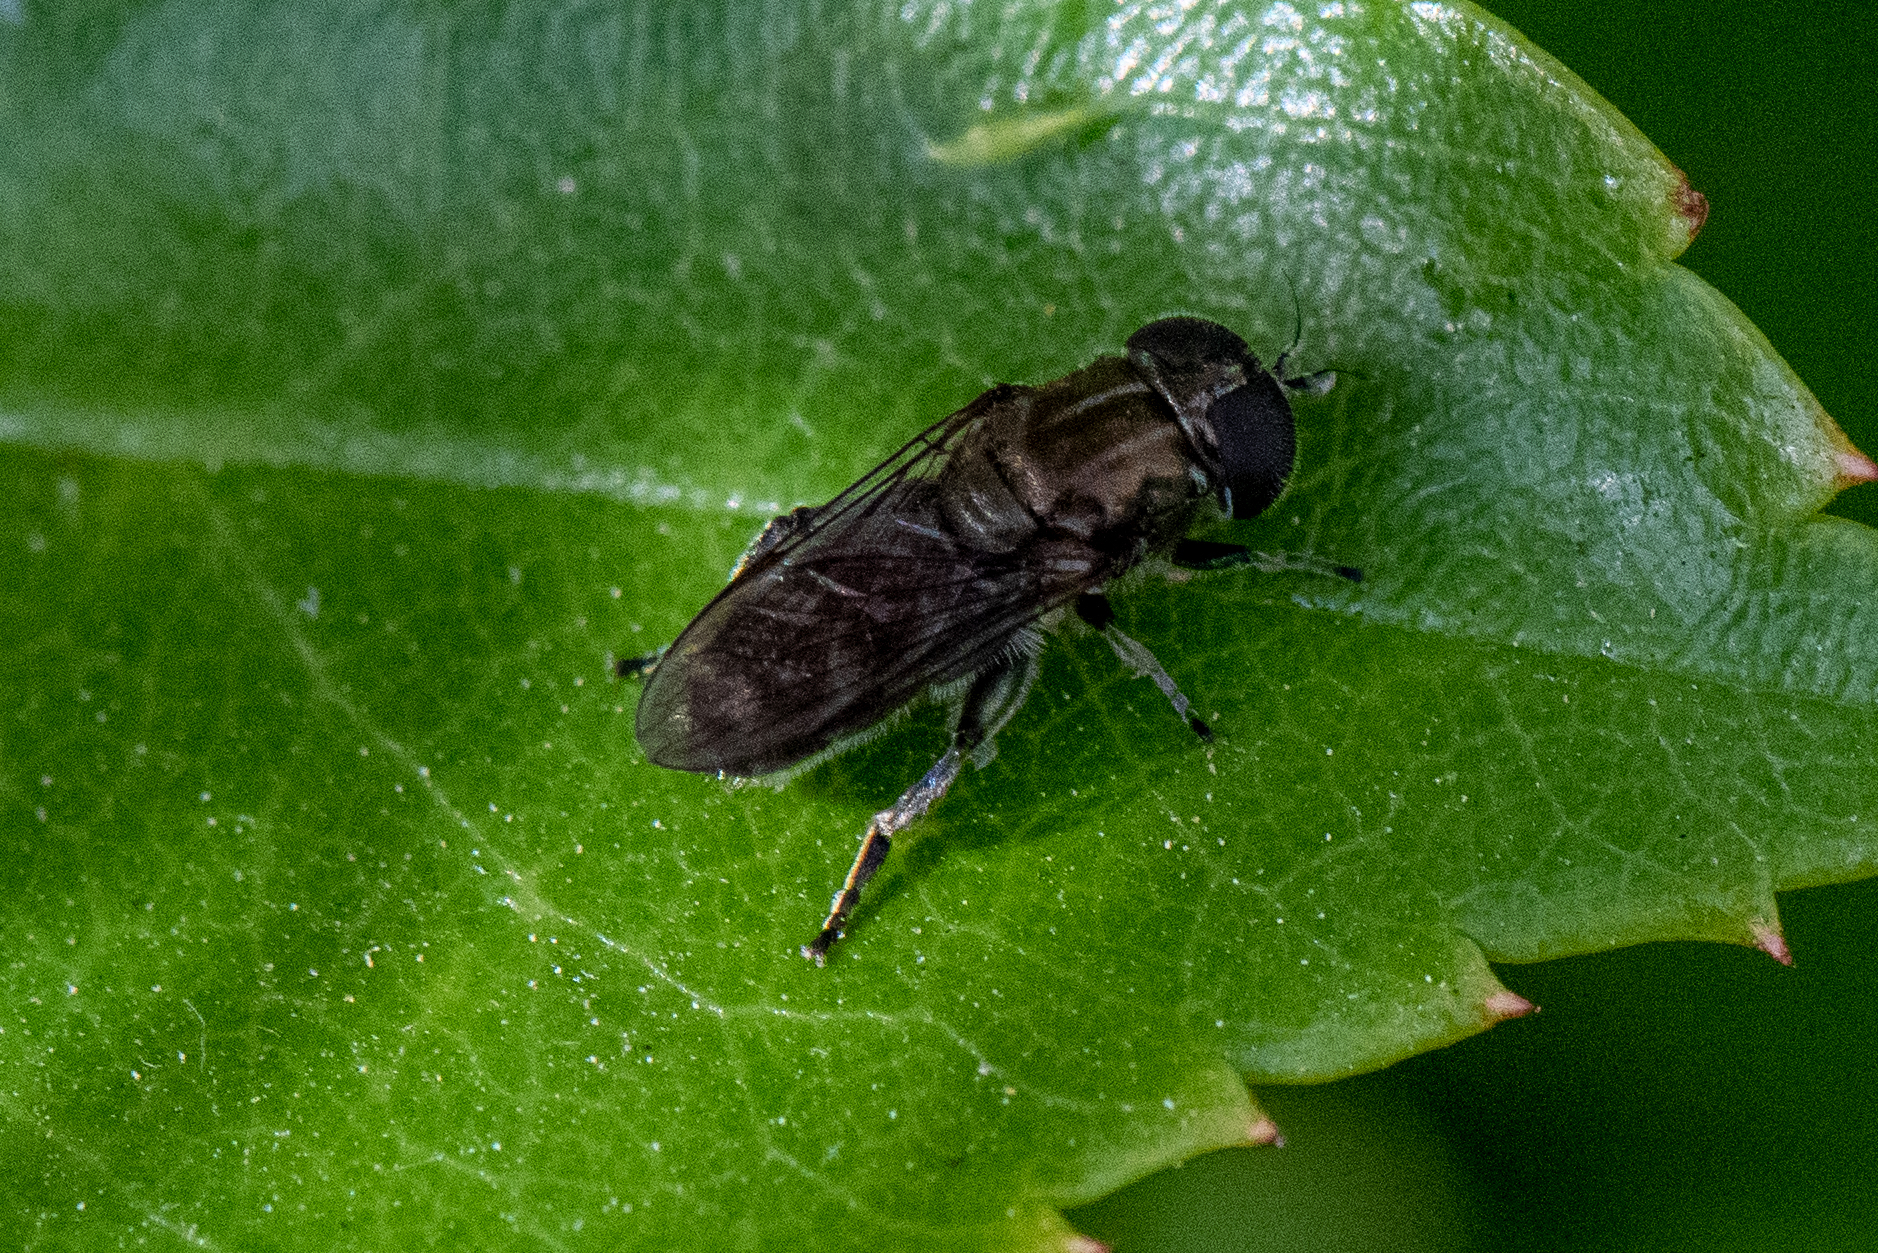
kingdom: Animalia
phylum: Arthropoda
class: Insecta
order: Diptera
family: Syrphidae
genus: Eumerus
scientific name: Eumerus
